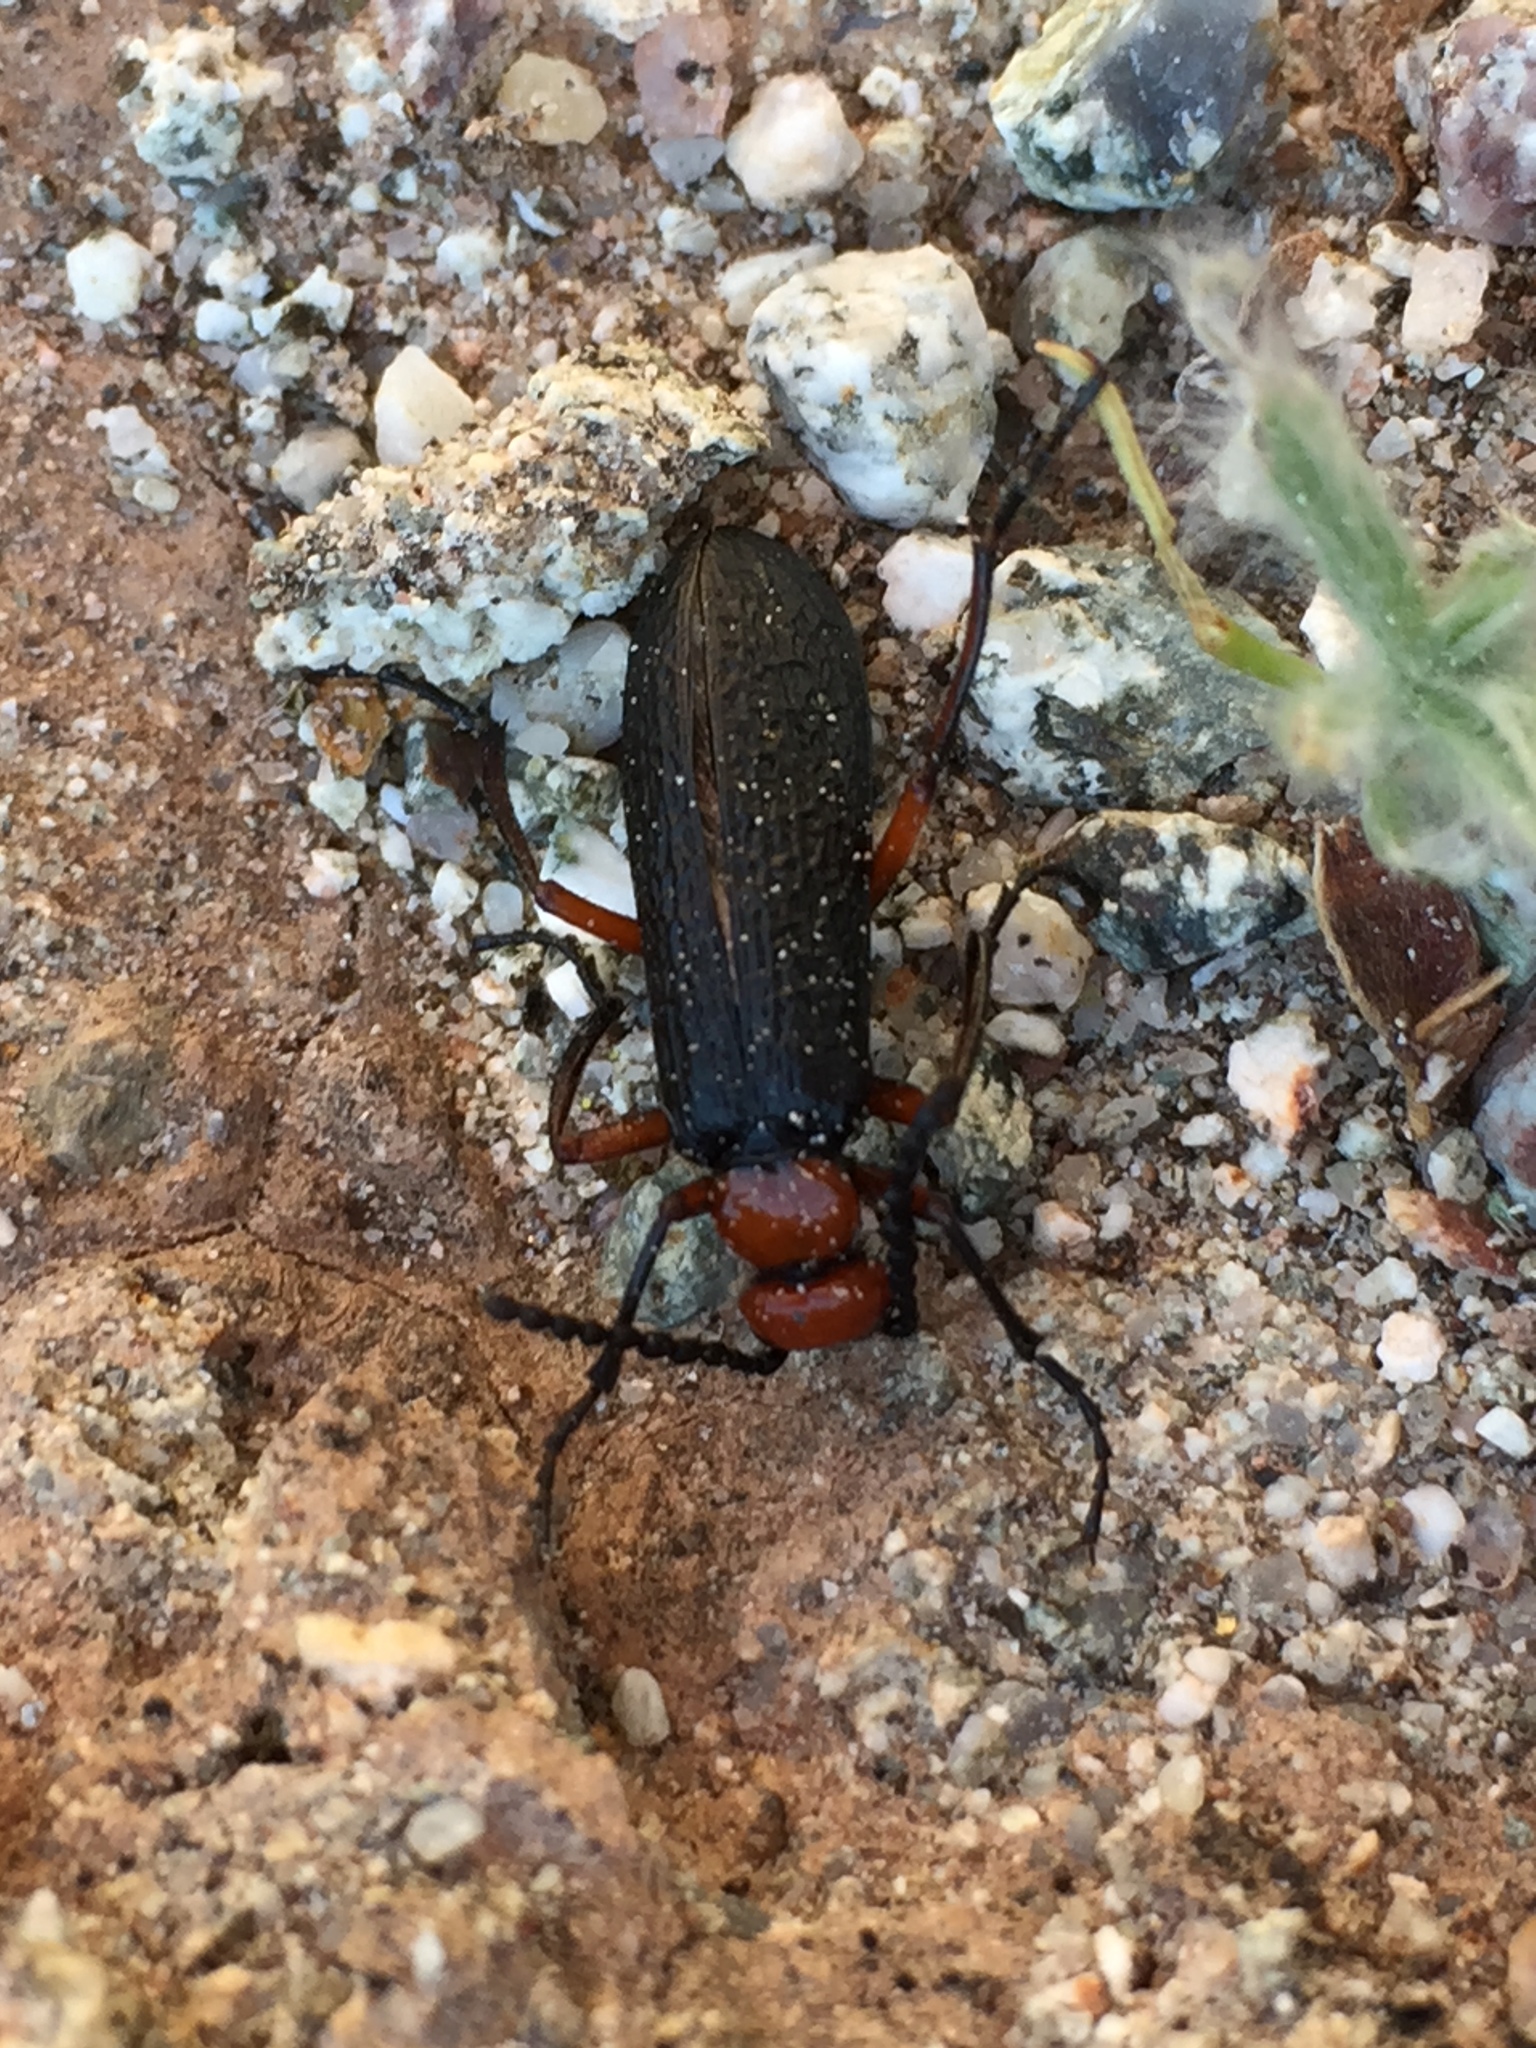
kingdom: Animalia
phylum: Arthropoda
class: Insecta
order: Coleoptera
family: Meloidae
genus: Lytta
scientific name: Lytta magister
